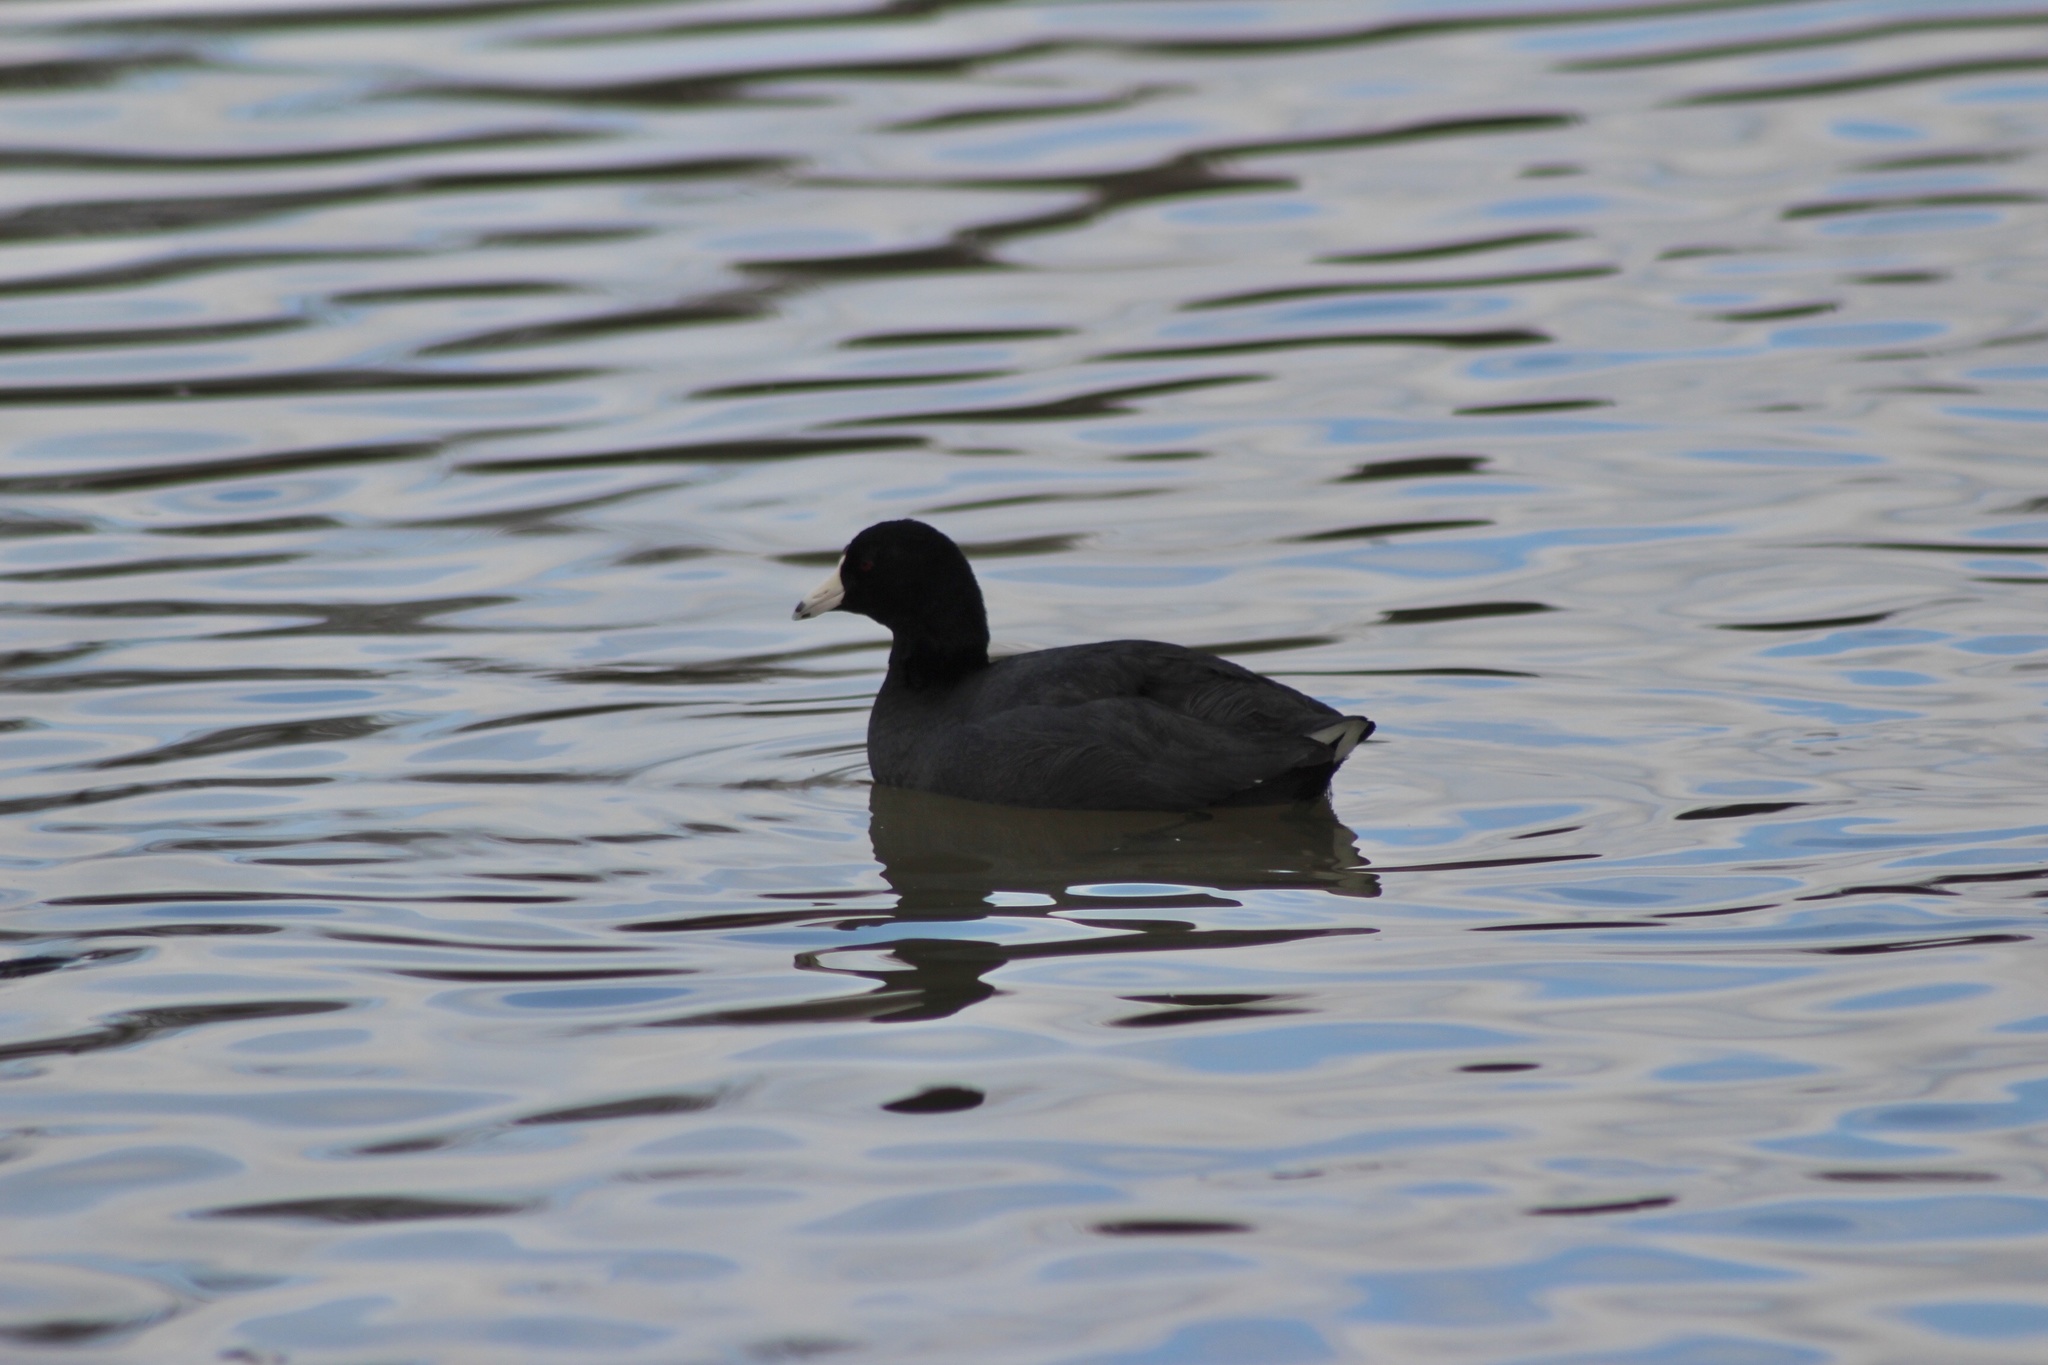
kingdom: Animalia
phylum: Chordata
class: Aves
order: Gruiformes
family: Rallidae
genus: Fulica
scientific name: Fulica americana
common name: American coot
